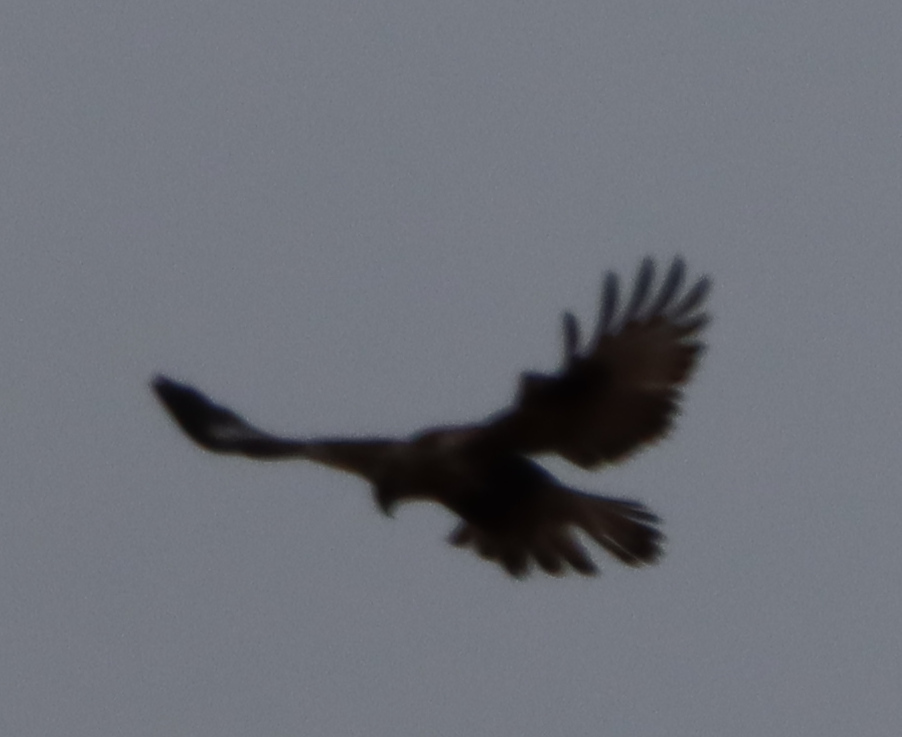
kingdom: Animalia
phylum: Chordata
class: Aves
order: Accipitriformes
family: Accipitridae
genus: Buteo
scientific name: Buteo lagopus
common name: Rough-legged buzzard
